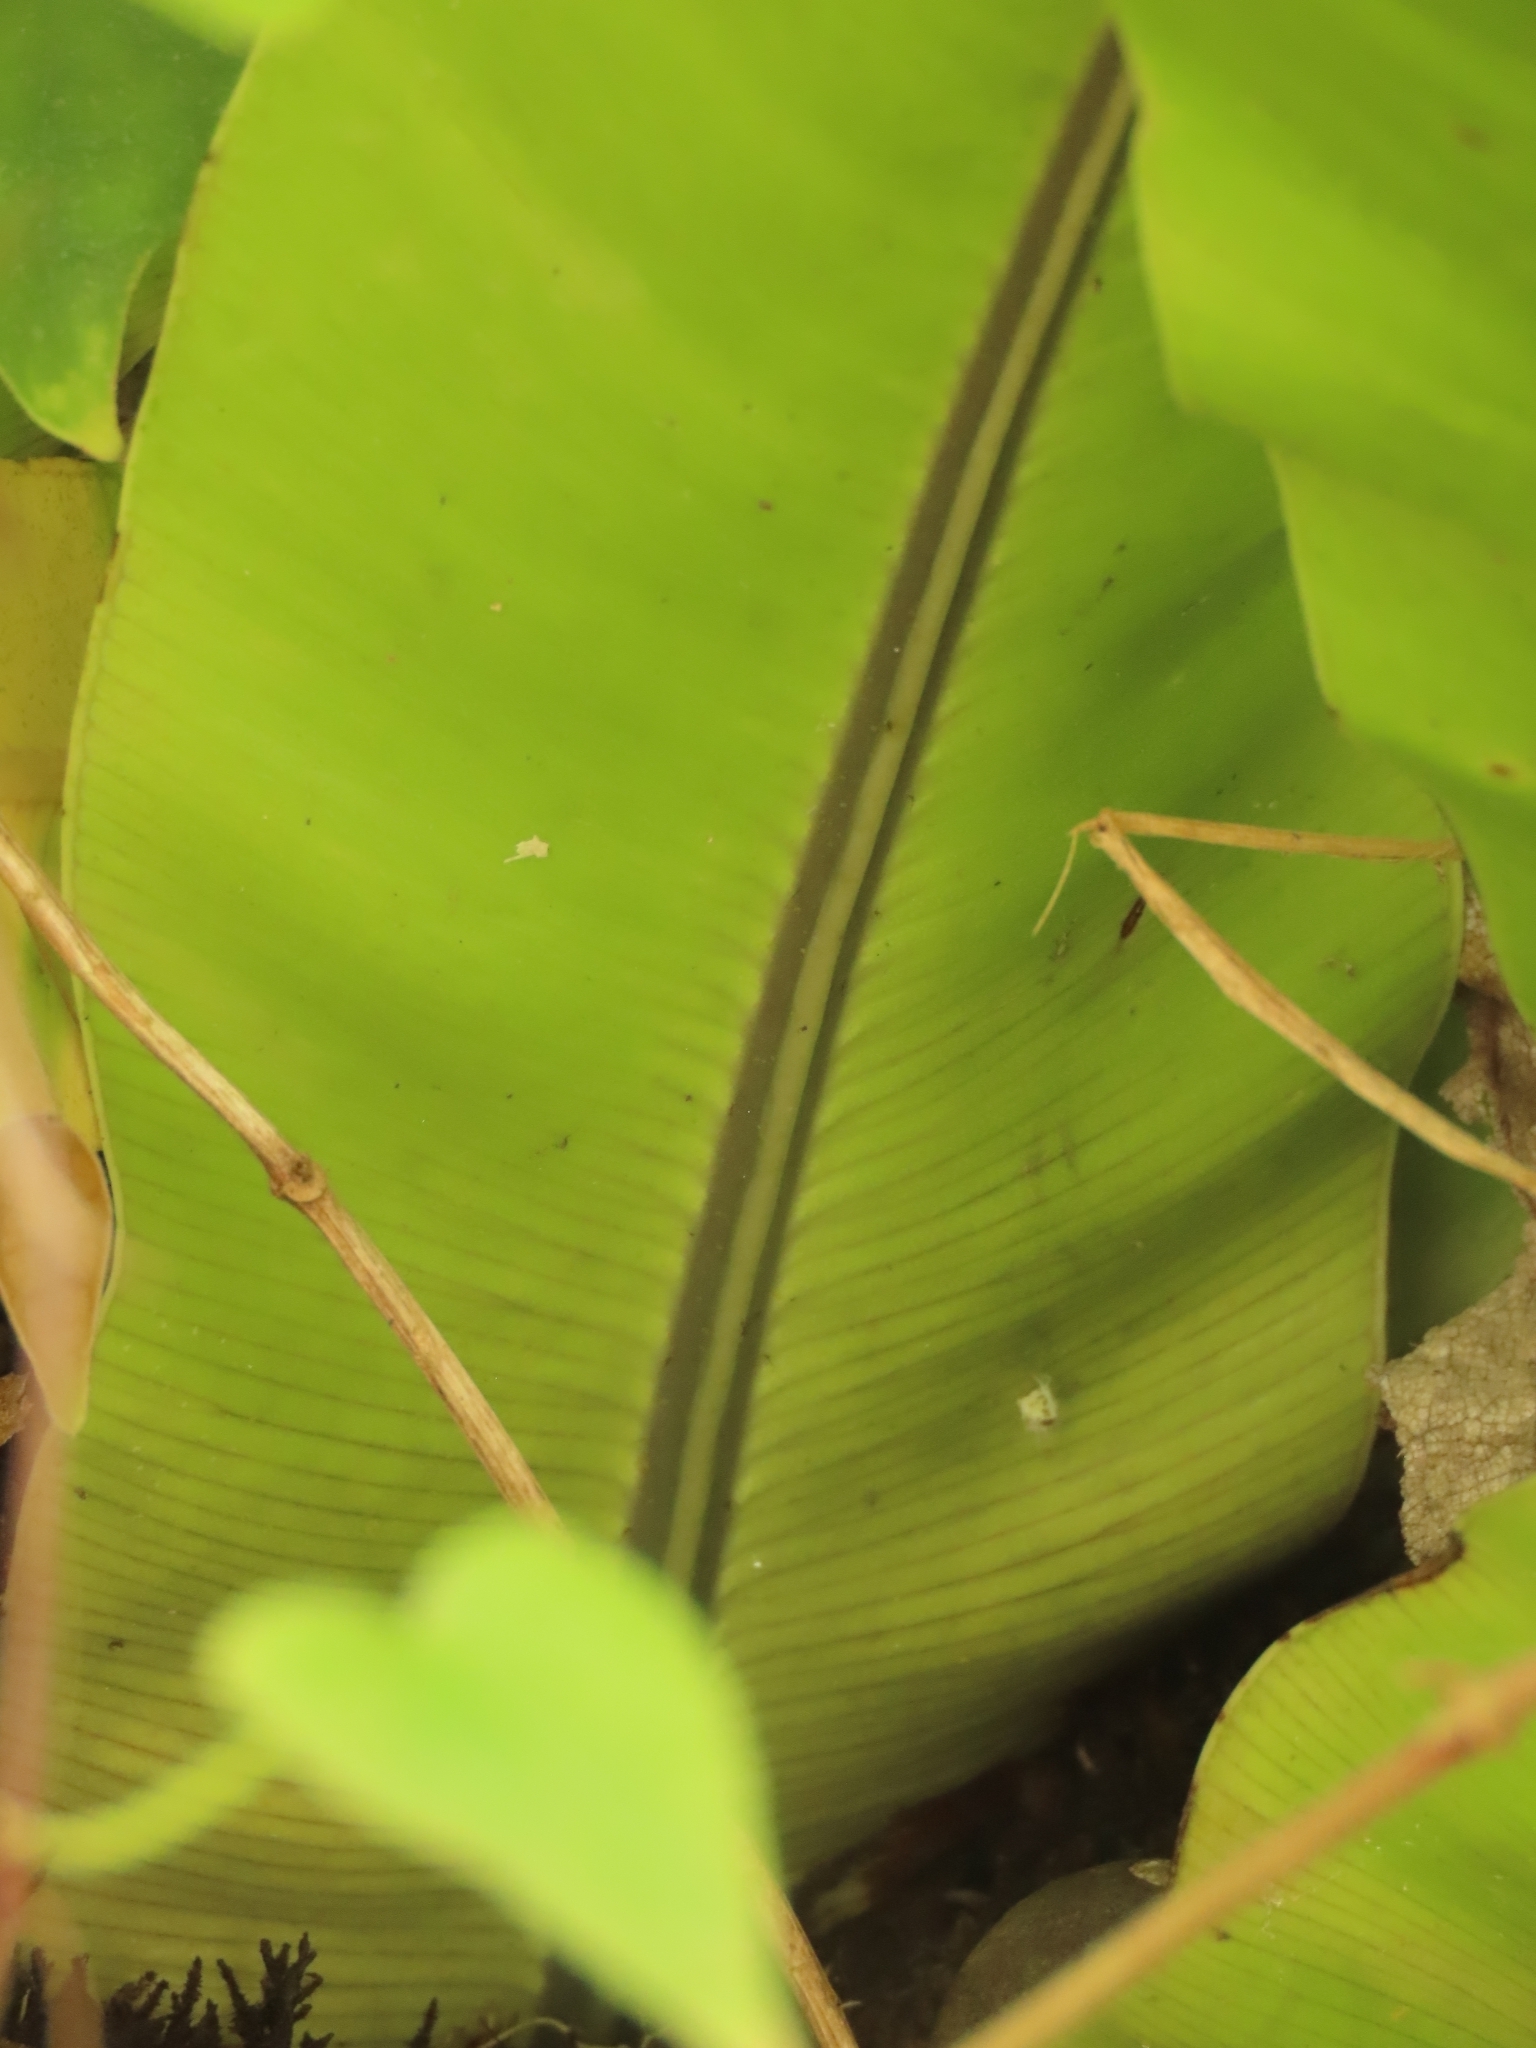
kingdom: Plantae
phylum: Tracheophyta
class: Polypodiopsida
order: Polypodiales
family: Aspleniaceae
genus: Asplenium
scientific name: Asplenium setoi
